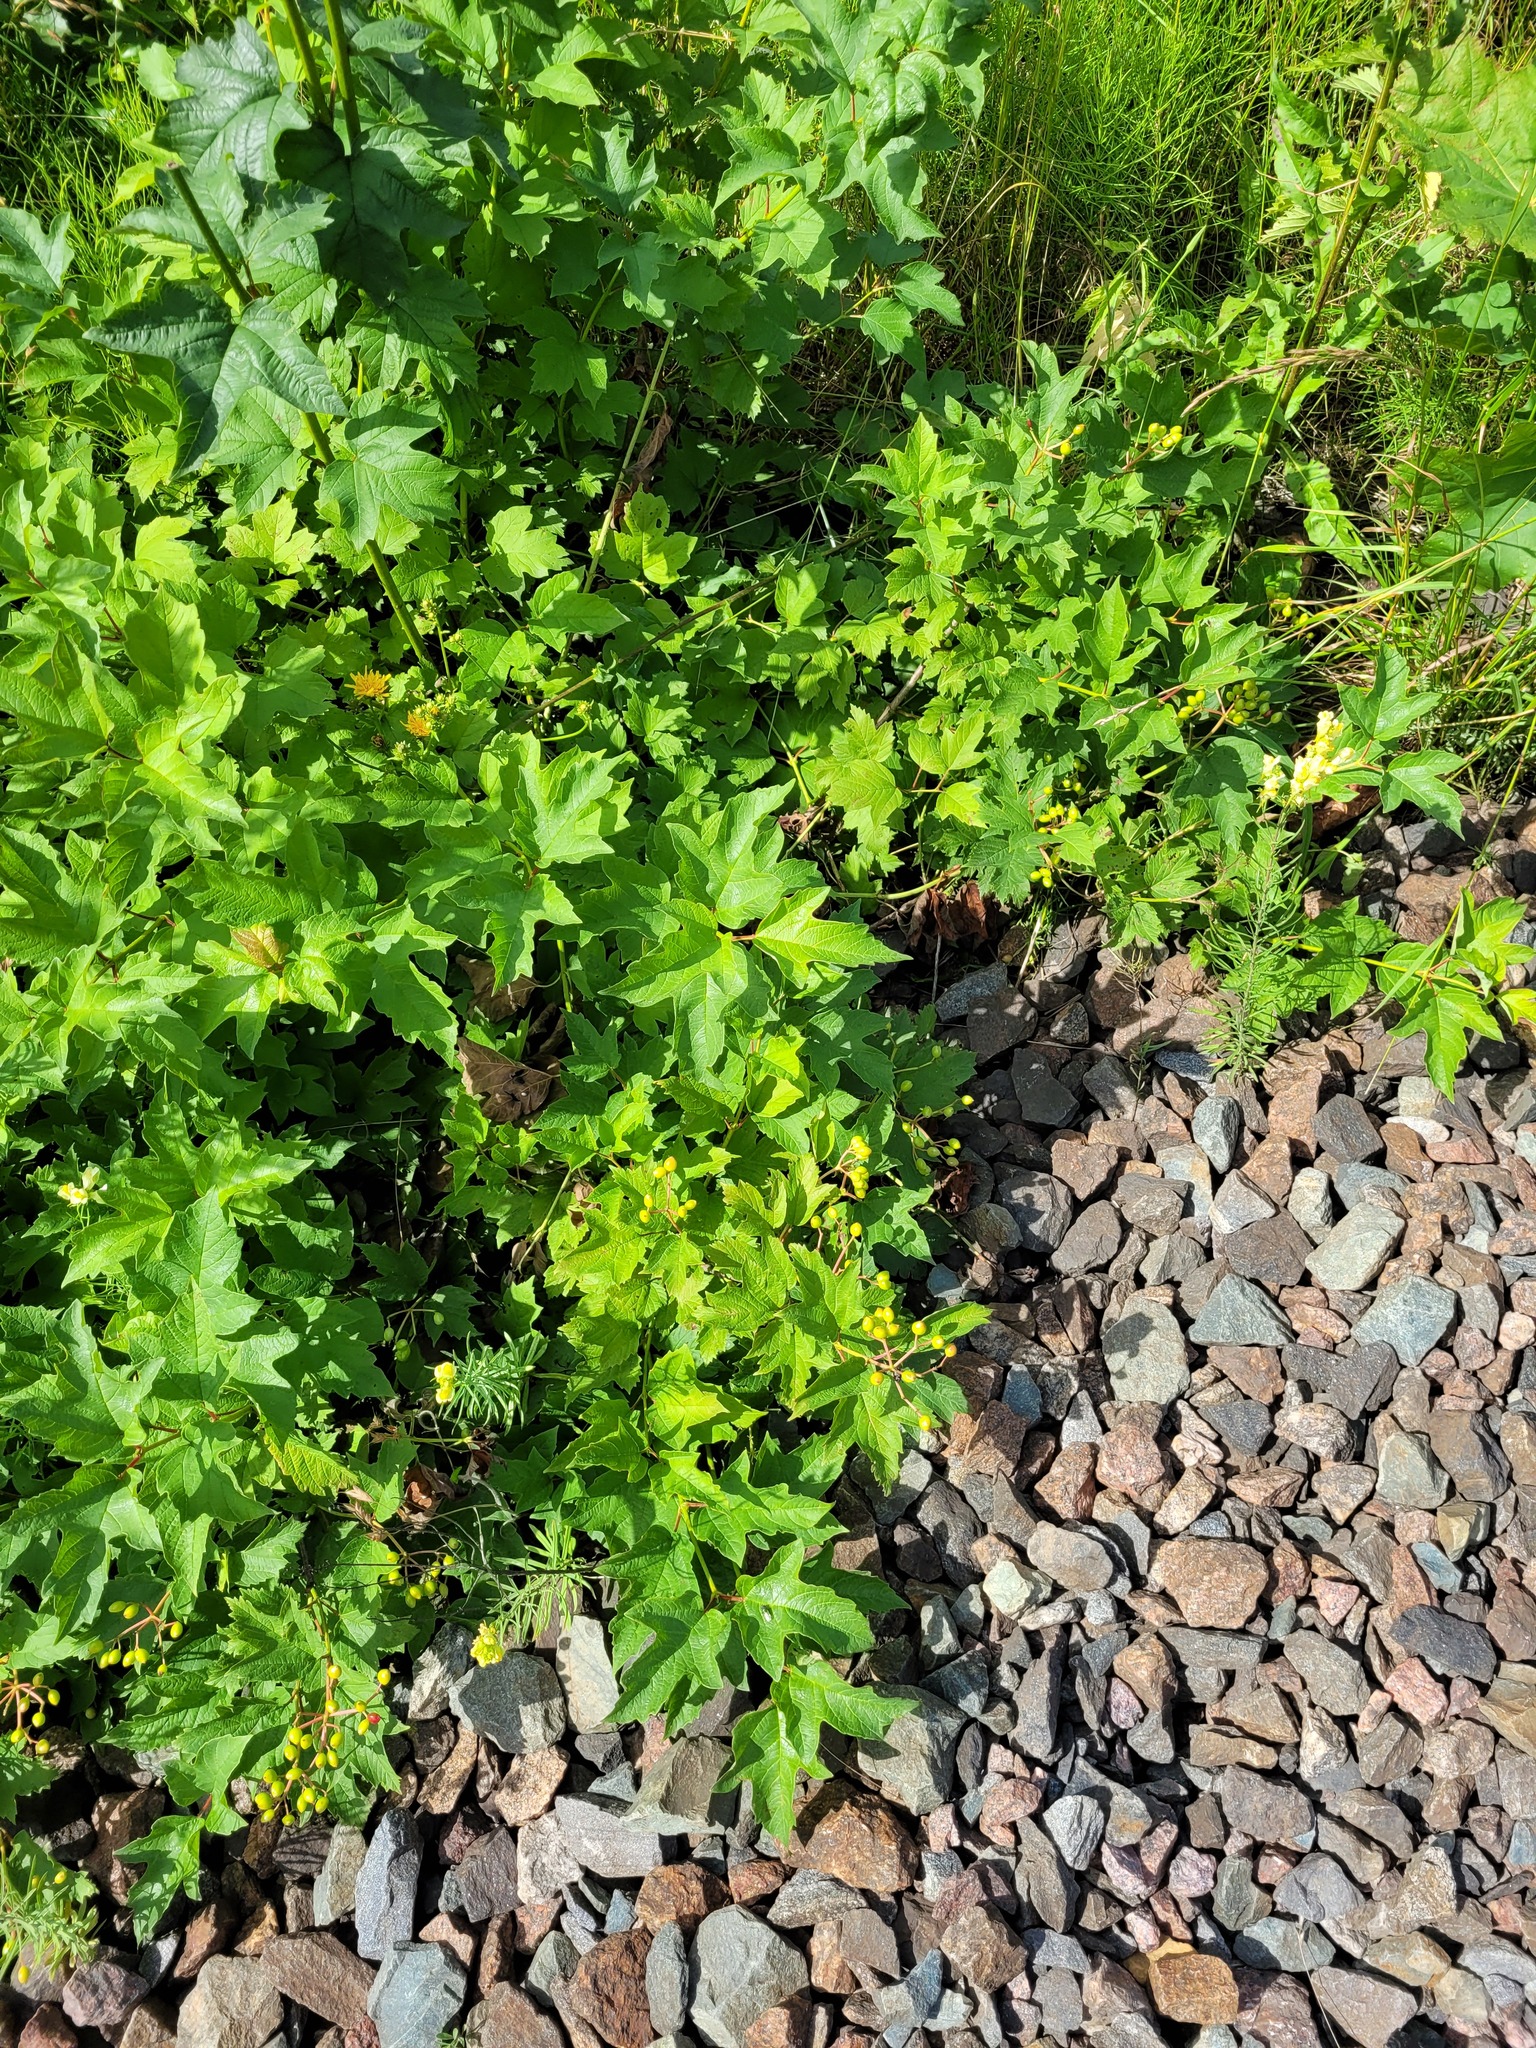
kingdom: Plantae
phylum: Tracheophyta
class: Magnoliopsida
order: Dipsacales
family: Viburnaceae
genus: Viburnum
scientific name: Viburnum opulus
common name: Guelder-rose
